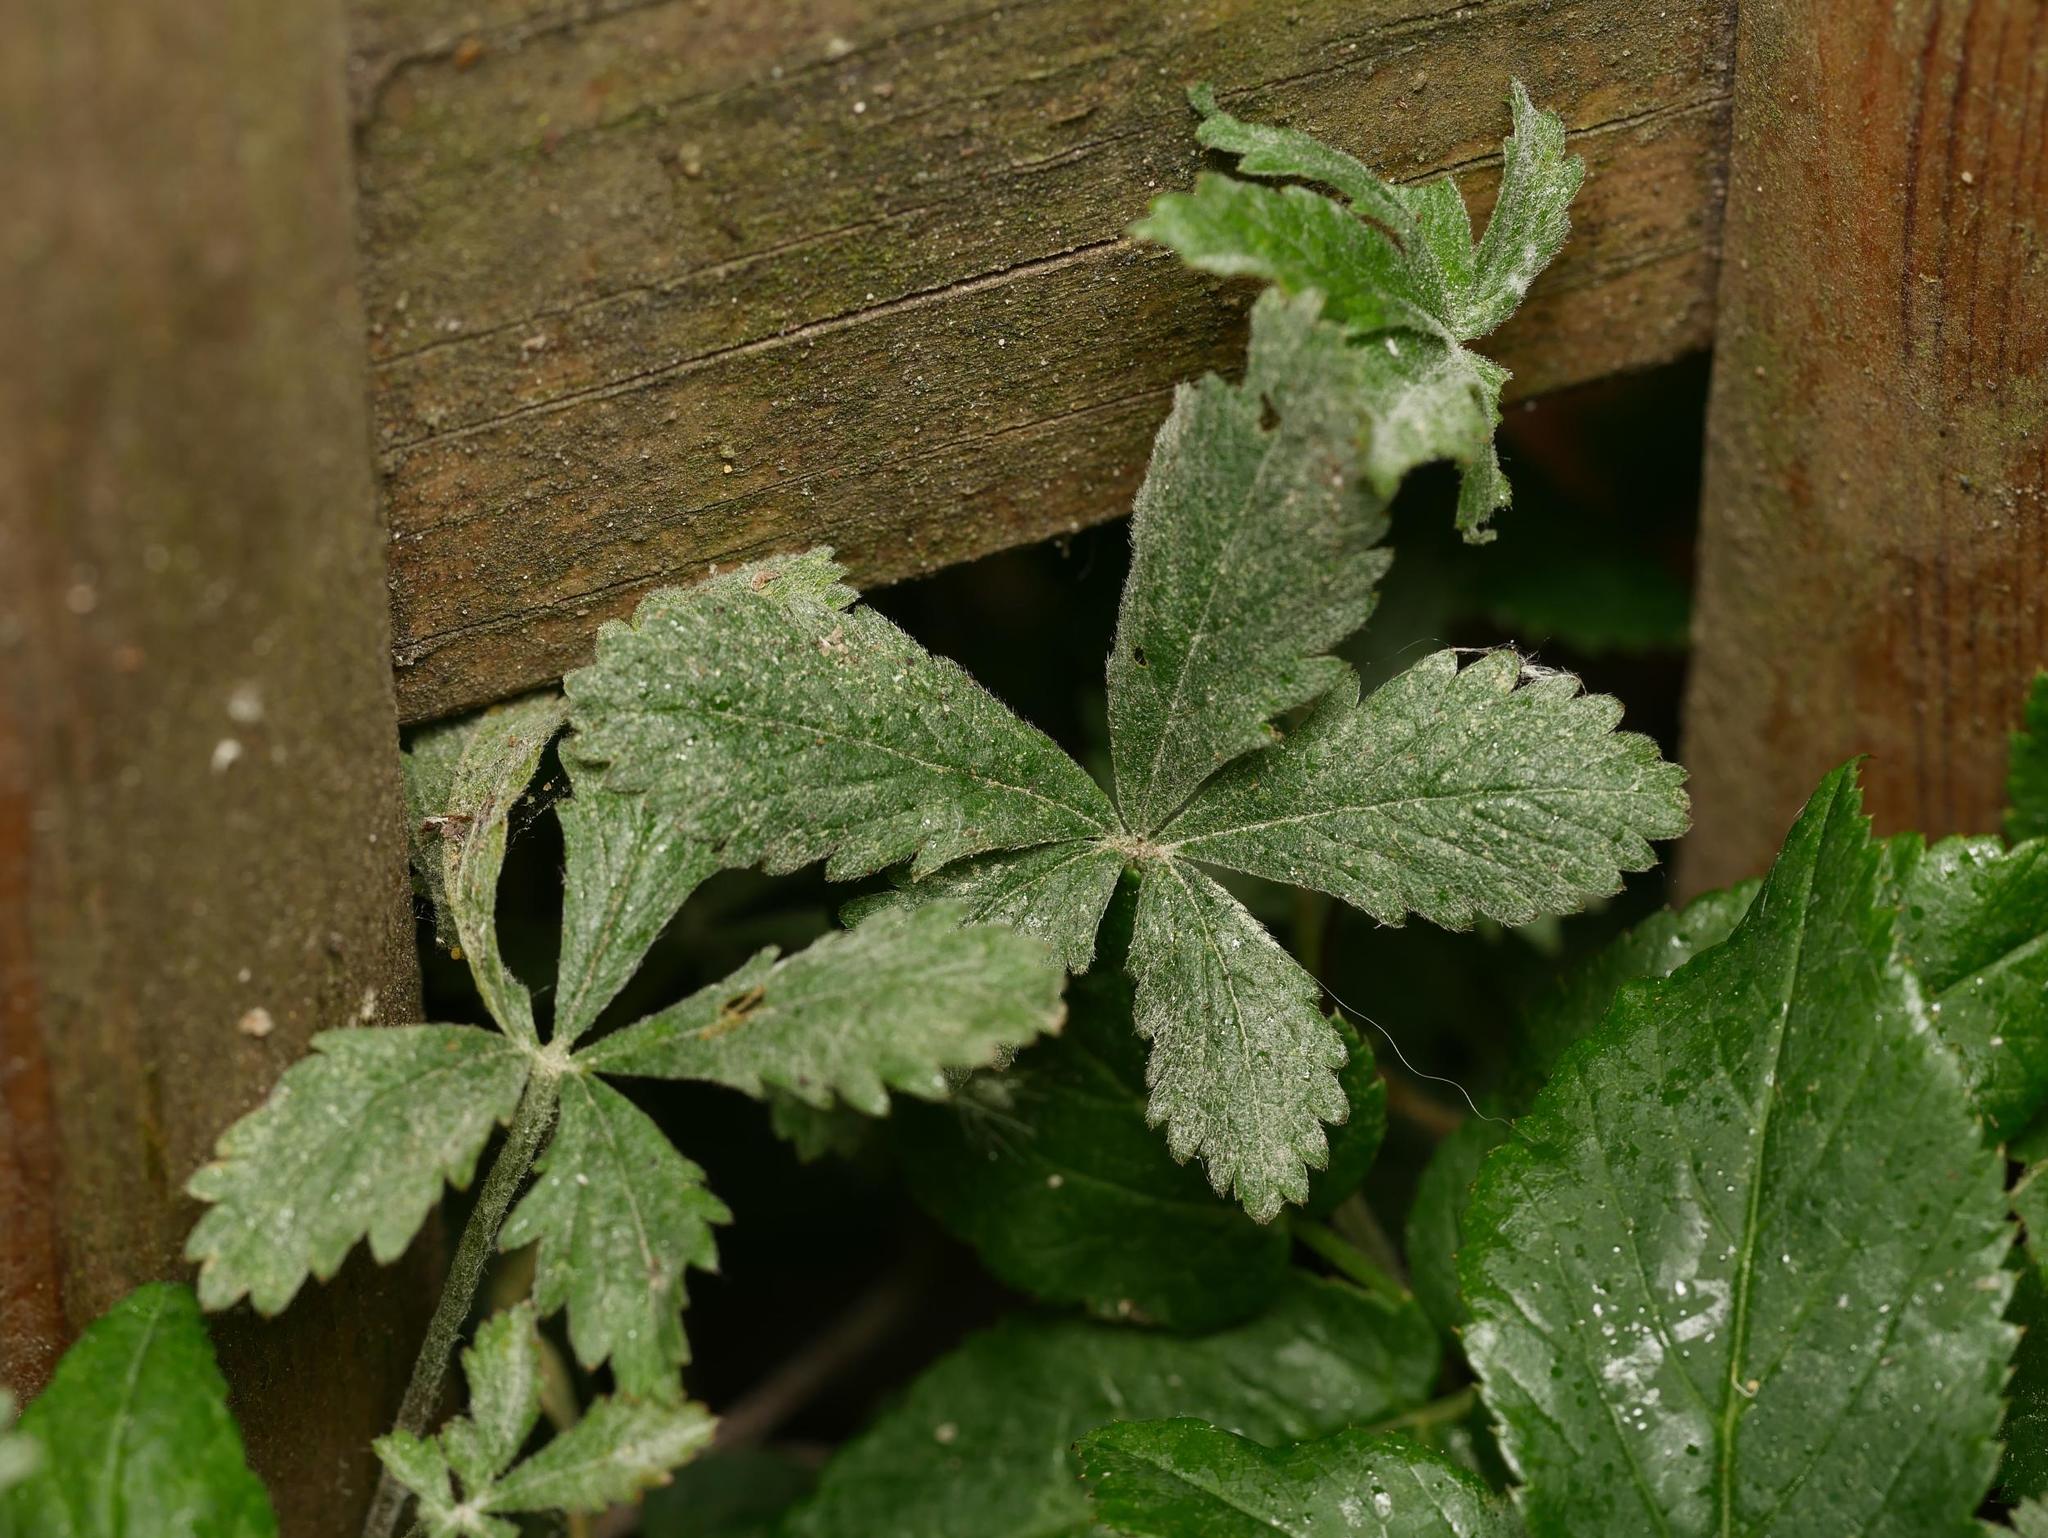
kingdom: Plantae
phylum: Tracheophyta
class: Magnoliopsida
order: Rosales
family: Rosaceae
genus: Potentilla
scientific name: Potentilla reptans
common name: Creeping cinquefoil
